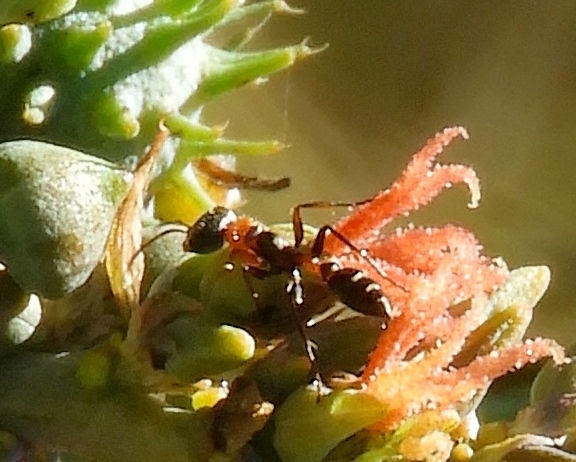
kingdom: Animalia
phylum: Arthropoda
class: Insecta
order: Hymenoptera
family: Formicidae
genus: Pseudomyrmex
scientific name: Pseudomyrmex gracilis
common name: Graceful twig ant
